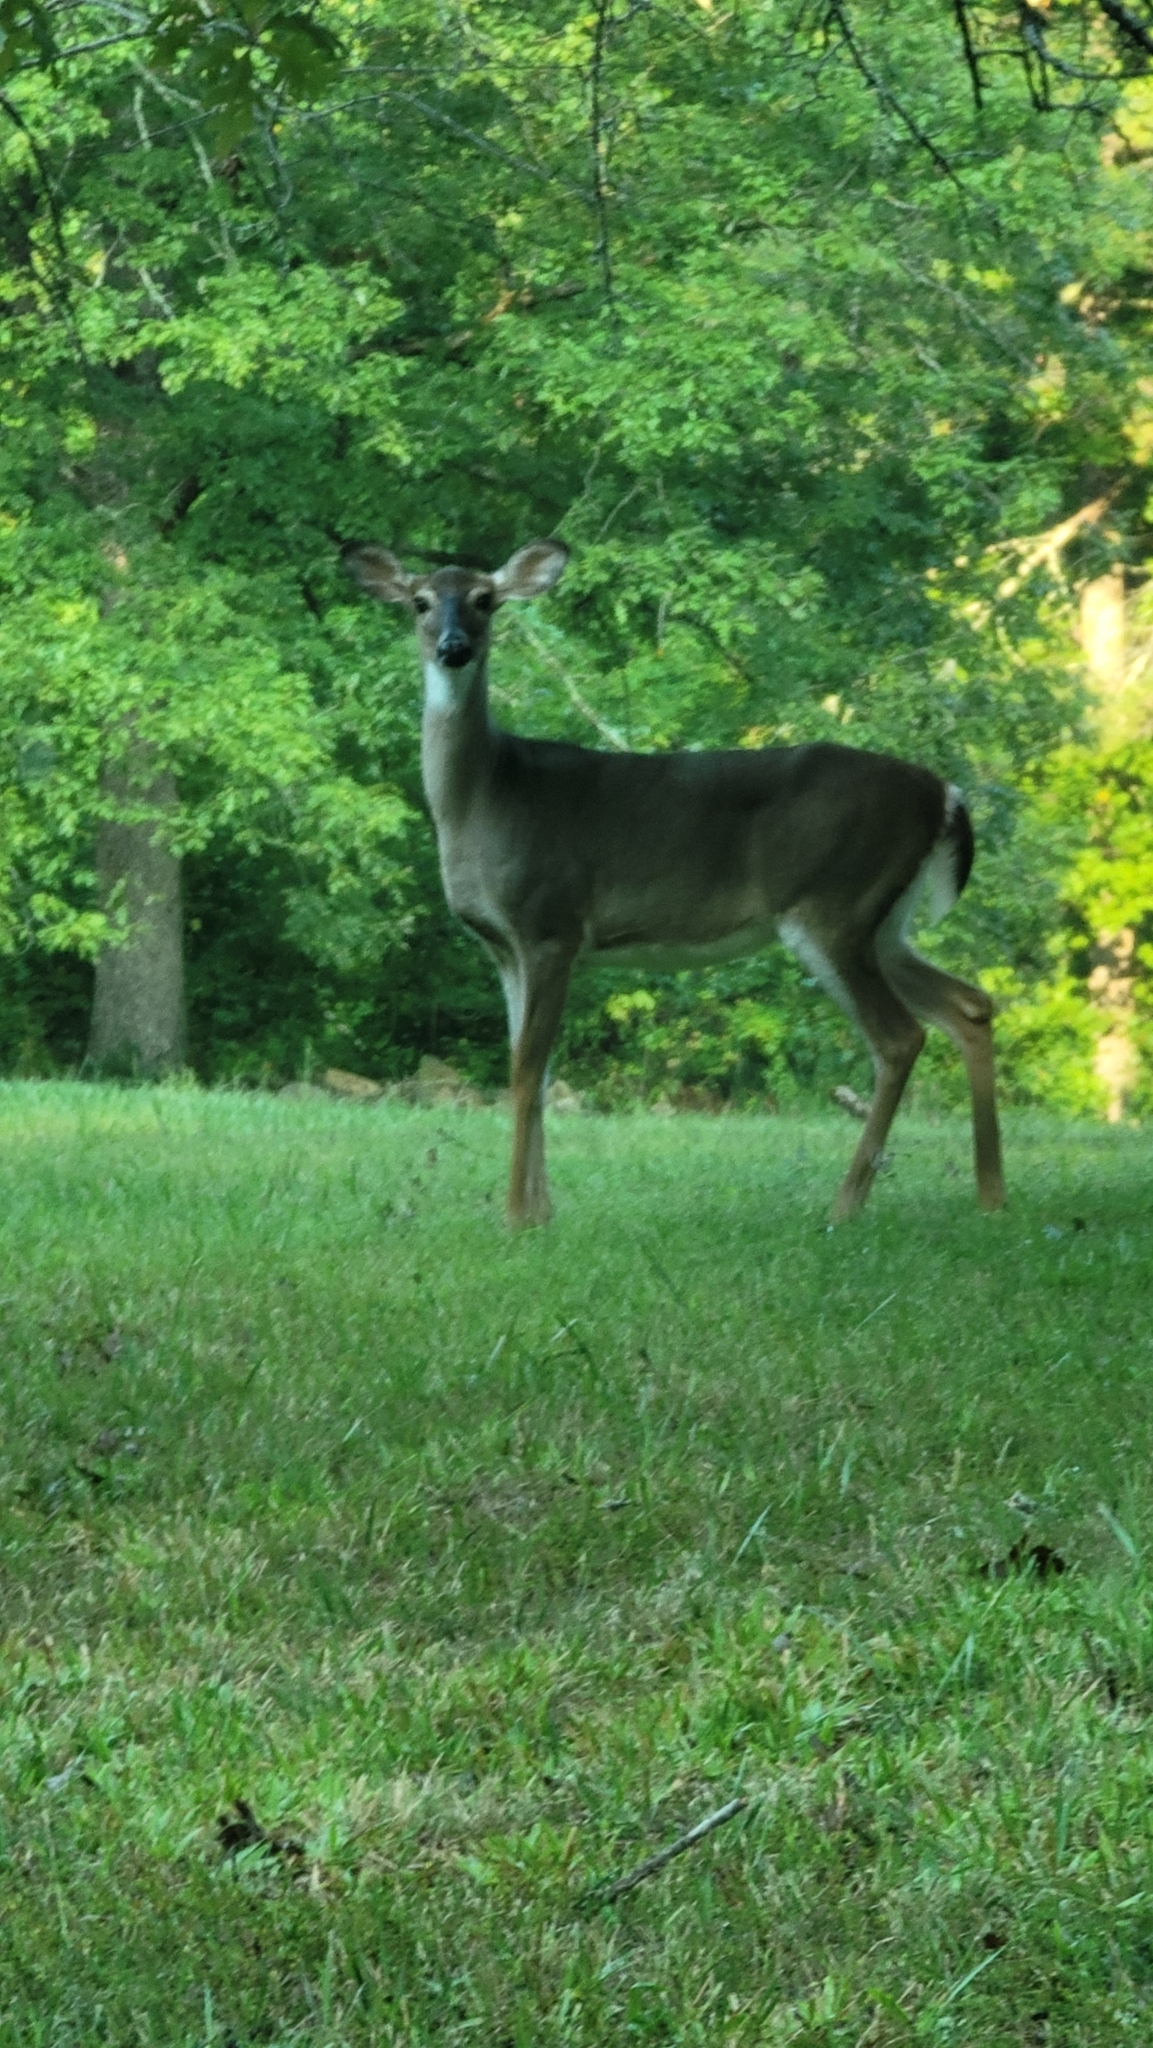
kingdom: Animalia
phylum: Chordata
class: Mammalia
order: Artiodactyla
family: Cervidae
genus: Odocoileus
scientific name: Odocoileus virginianus
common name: White-tailed deer
